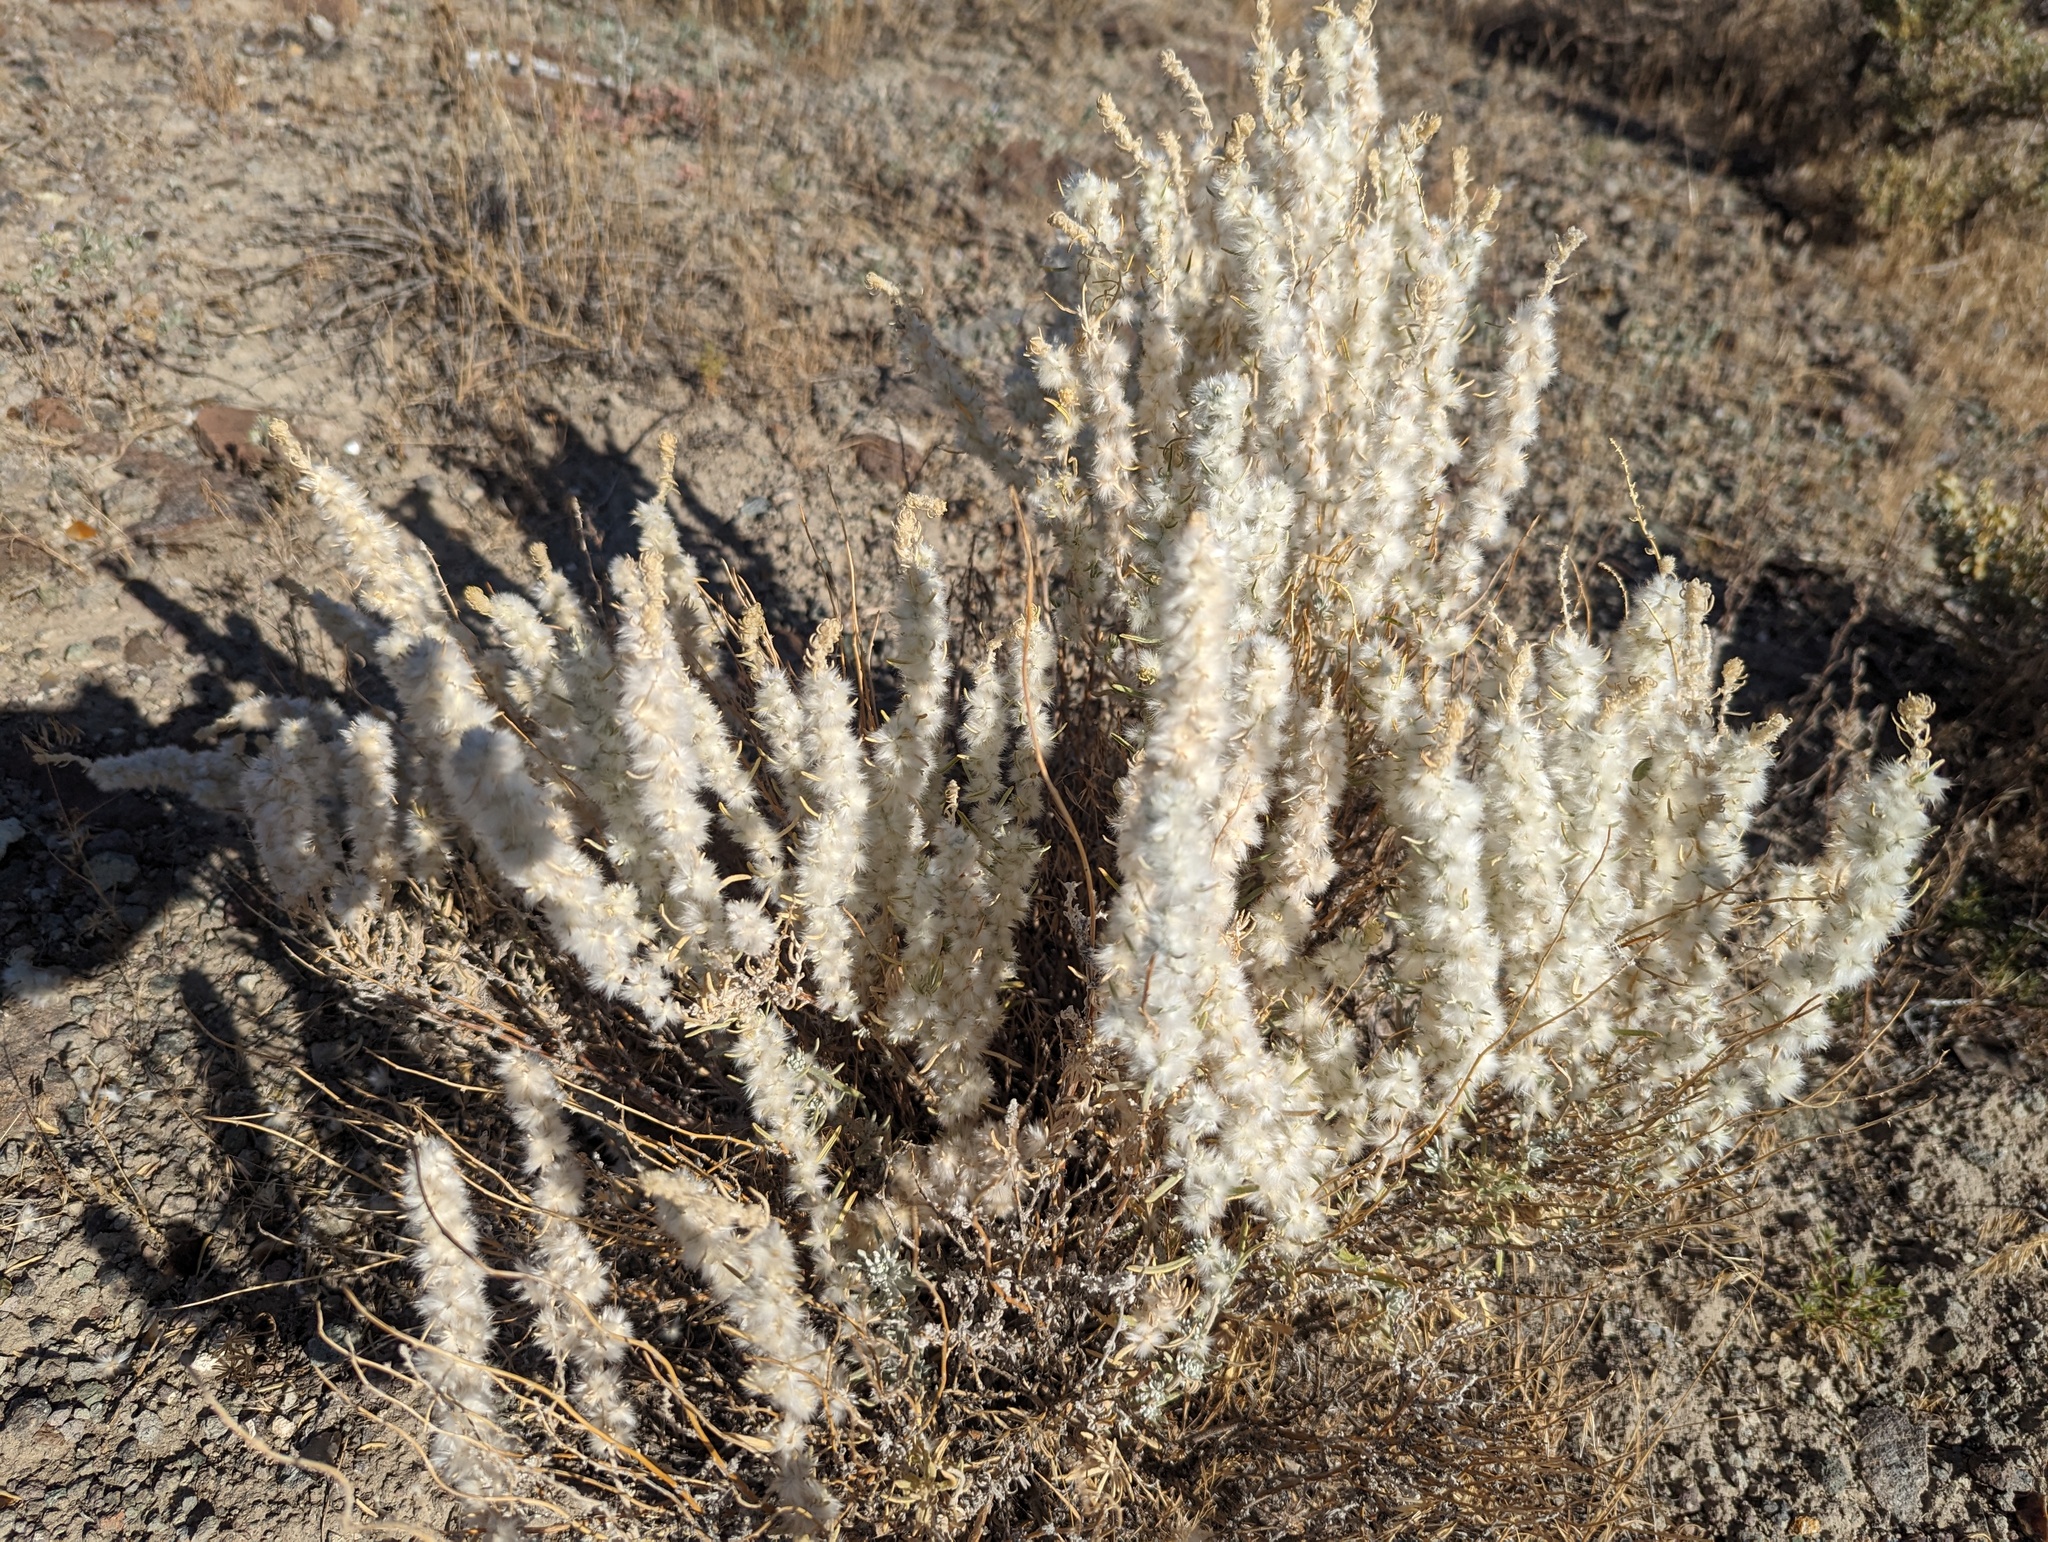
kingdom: Plantae
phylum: Tracheophyta
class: Magnoliopsida
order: Caryophyllales
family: Amaranthaceae
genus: Krascheninnikovia
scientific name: Krascheninnikovia lanata
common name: Winterfat
